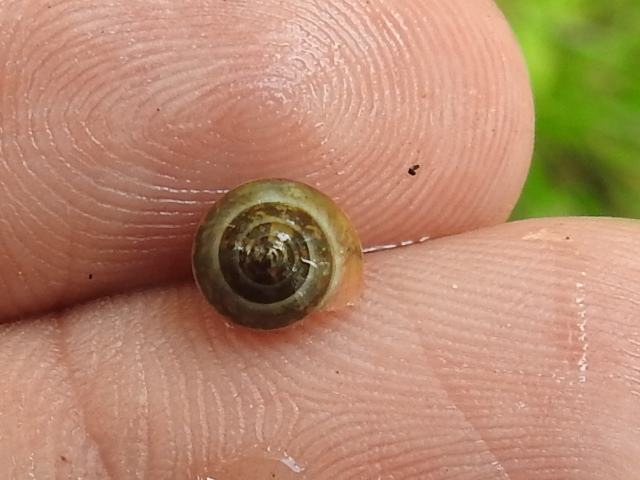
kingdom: Animalia
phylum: Mollusca
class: Gastropoda
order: Cycloneritida
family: Helicinidae
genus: Helicina
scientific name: Helicina orbiculata
